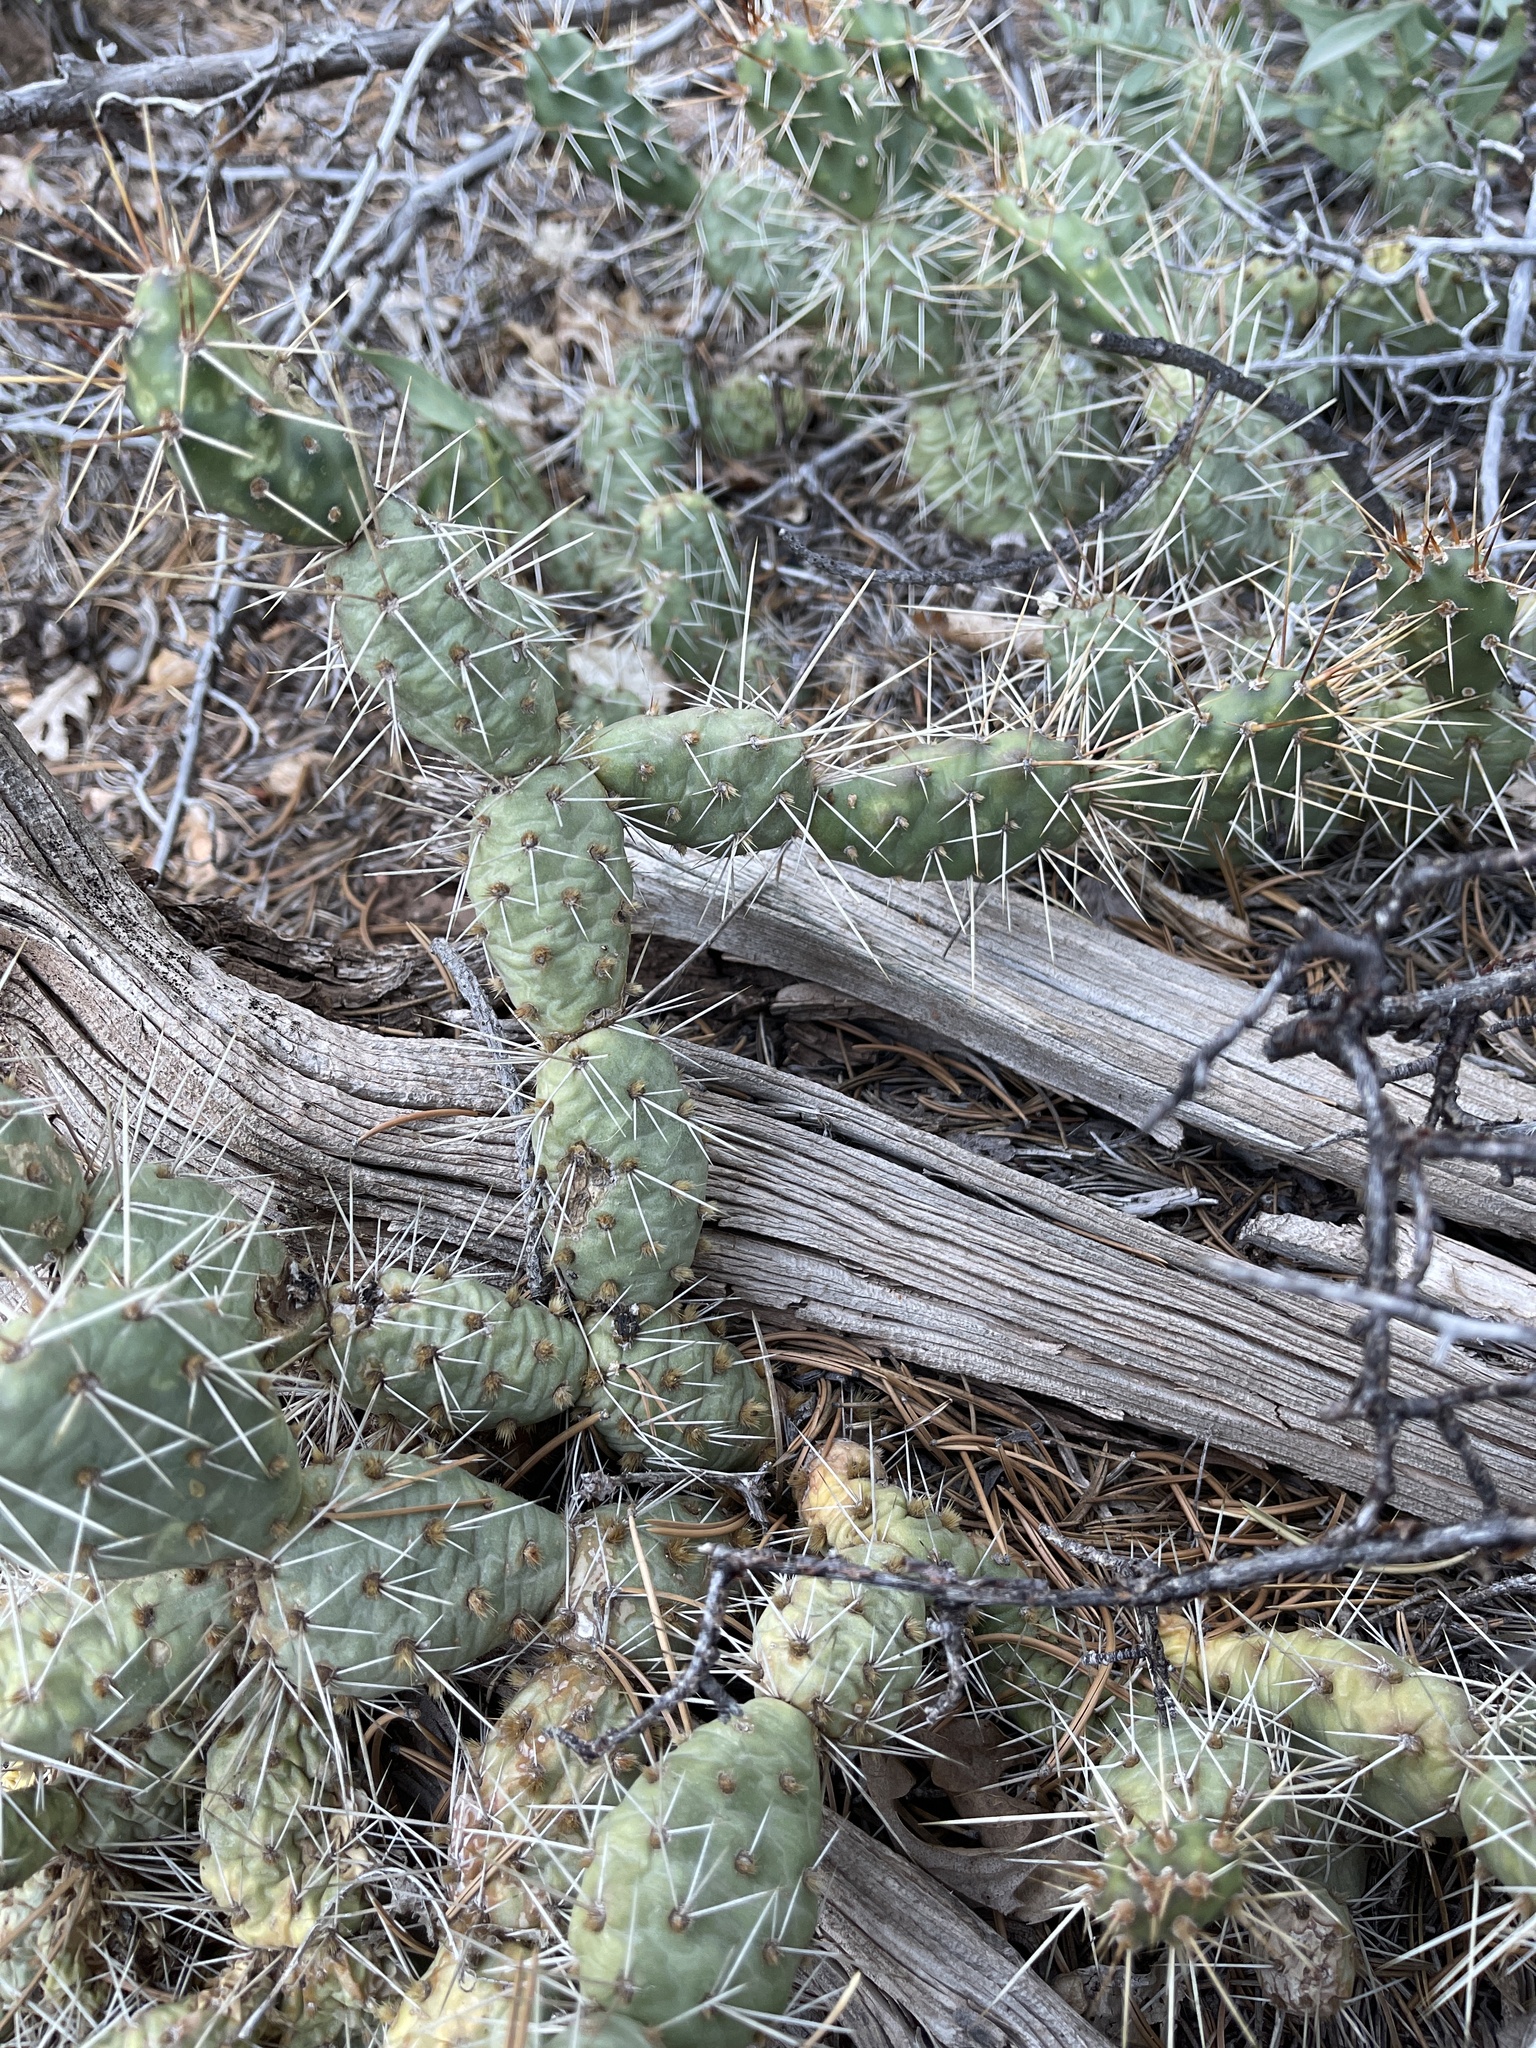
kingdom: Plantae
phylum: Tracheophyta
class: Magnoliopsida
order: Caryophyllales
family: Cactaceae
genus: Opuntia
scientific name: Opuntia fragilis
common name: Brittle cactus
